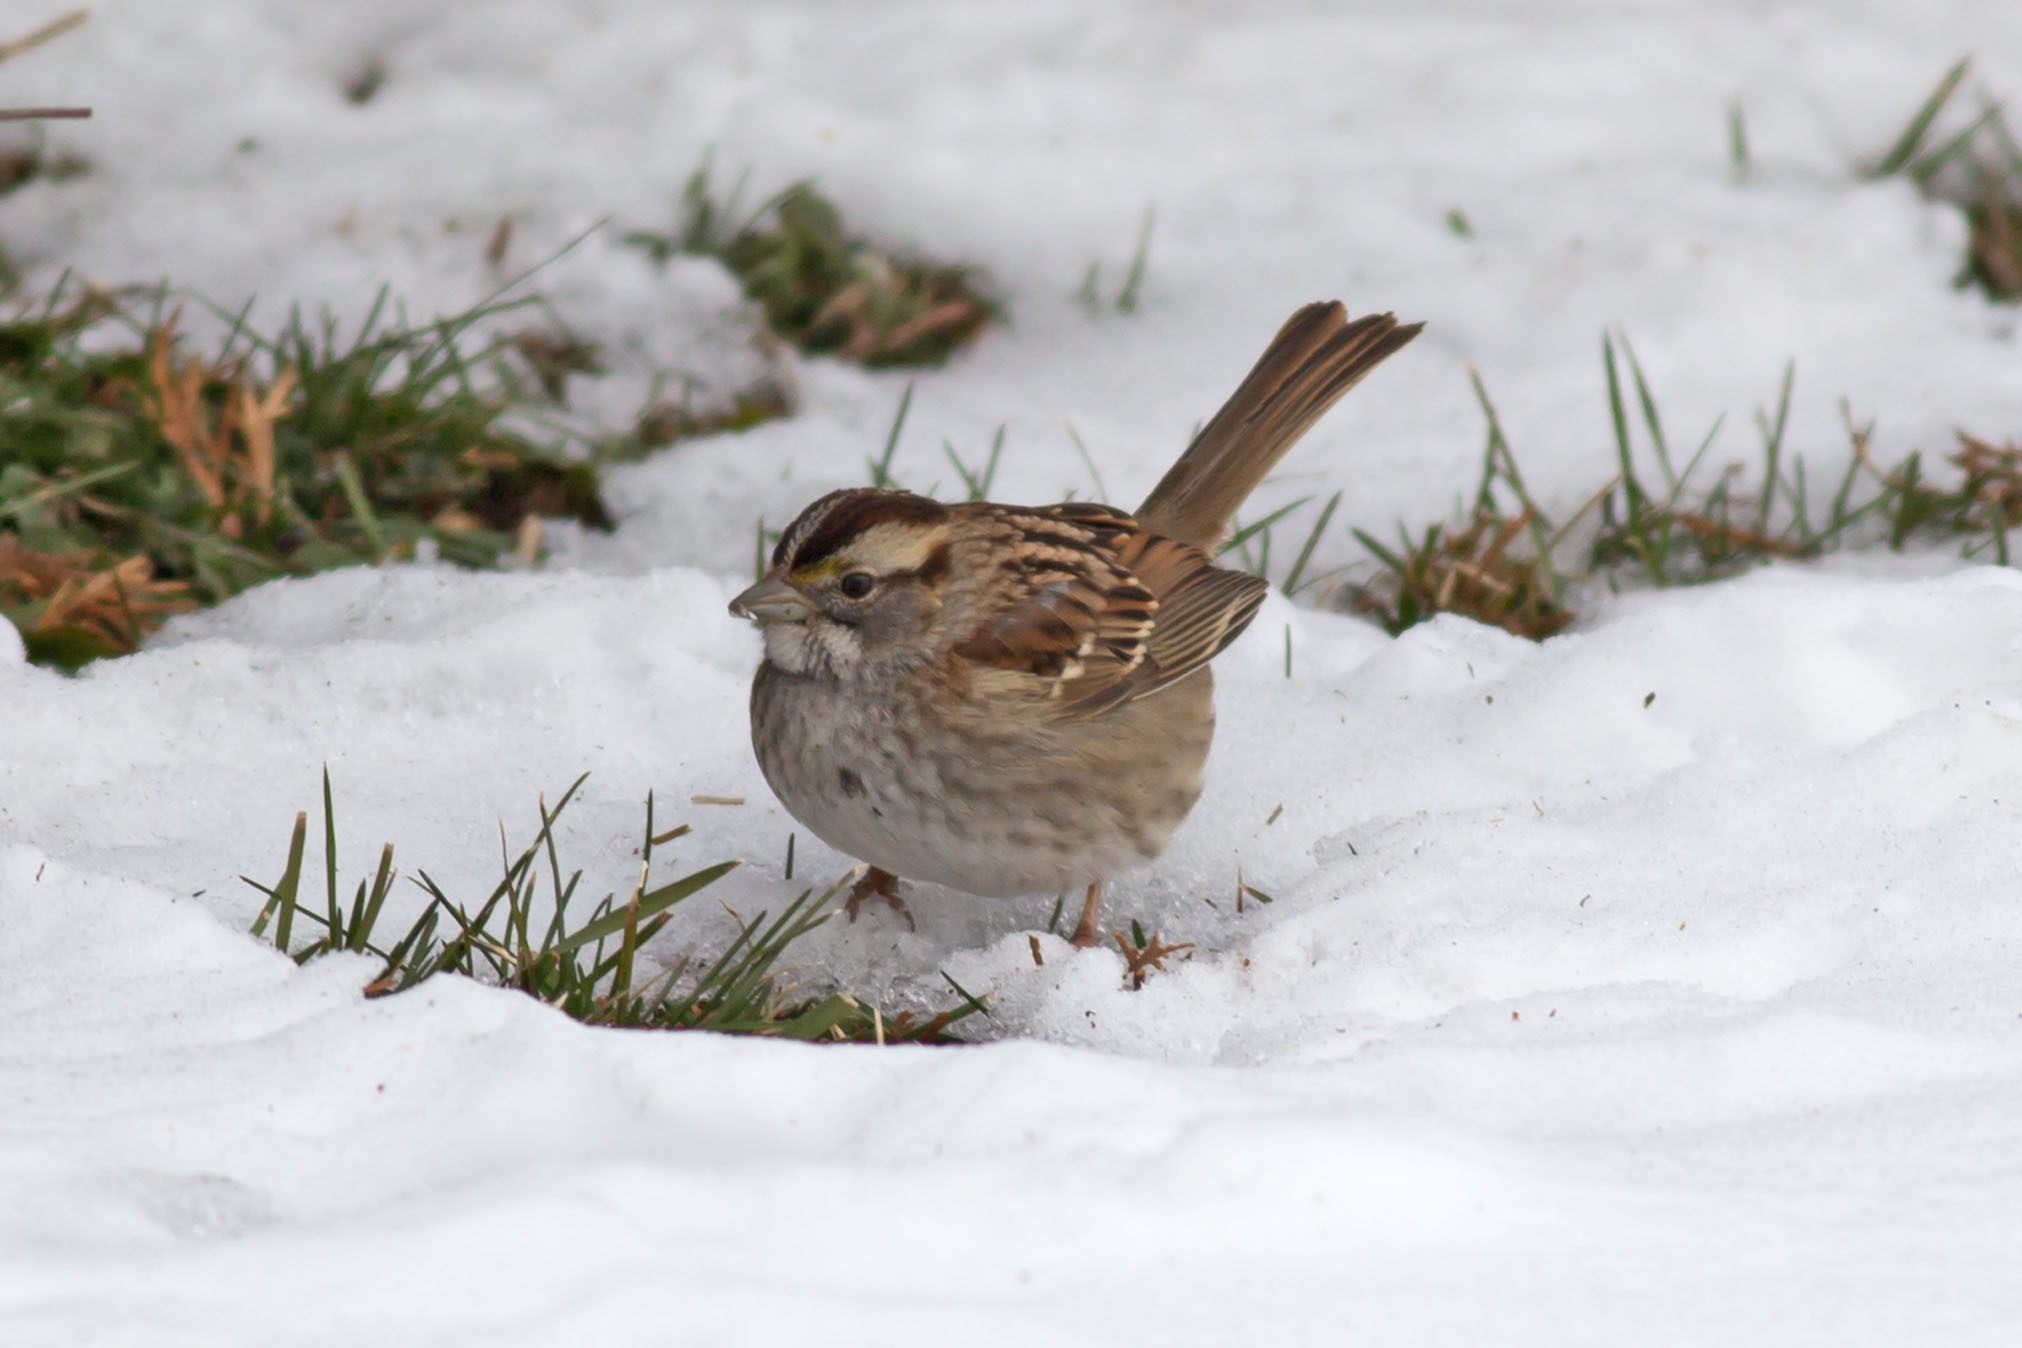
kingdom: Animalia
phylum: Chordata
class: Aves
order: Passeriformes
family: Passerellidae
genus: Zonotrichia
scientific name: Zonotrichia albicollis
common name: White-throated sparrow
